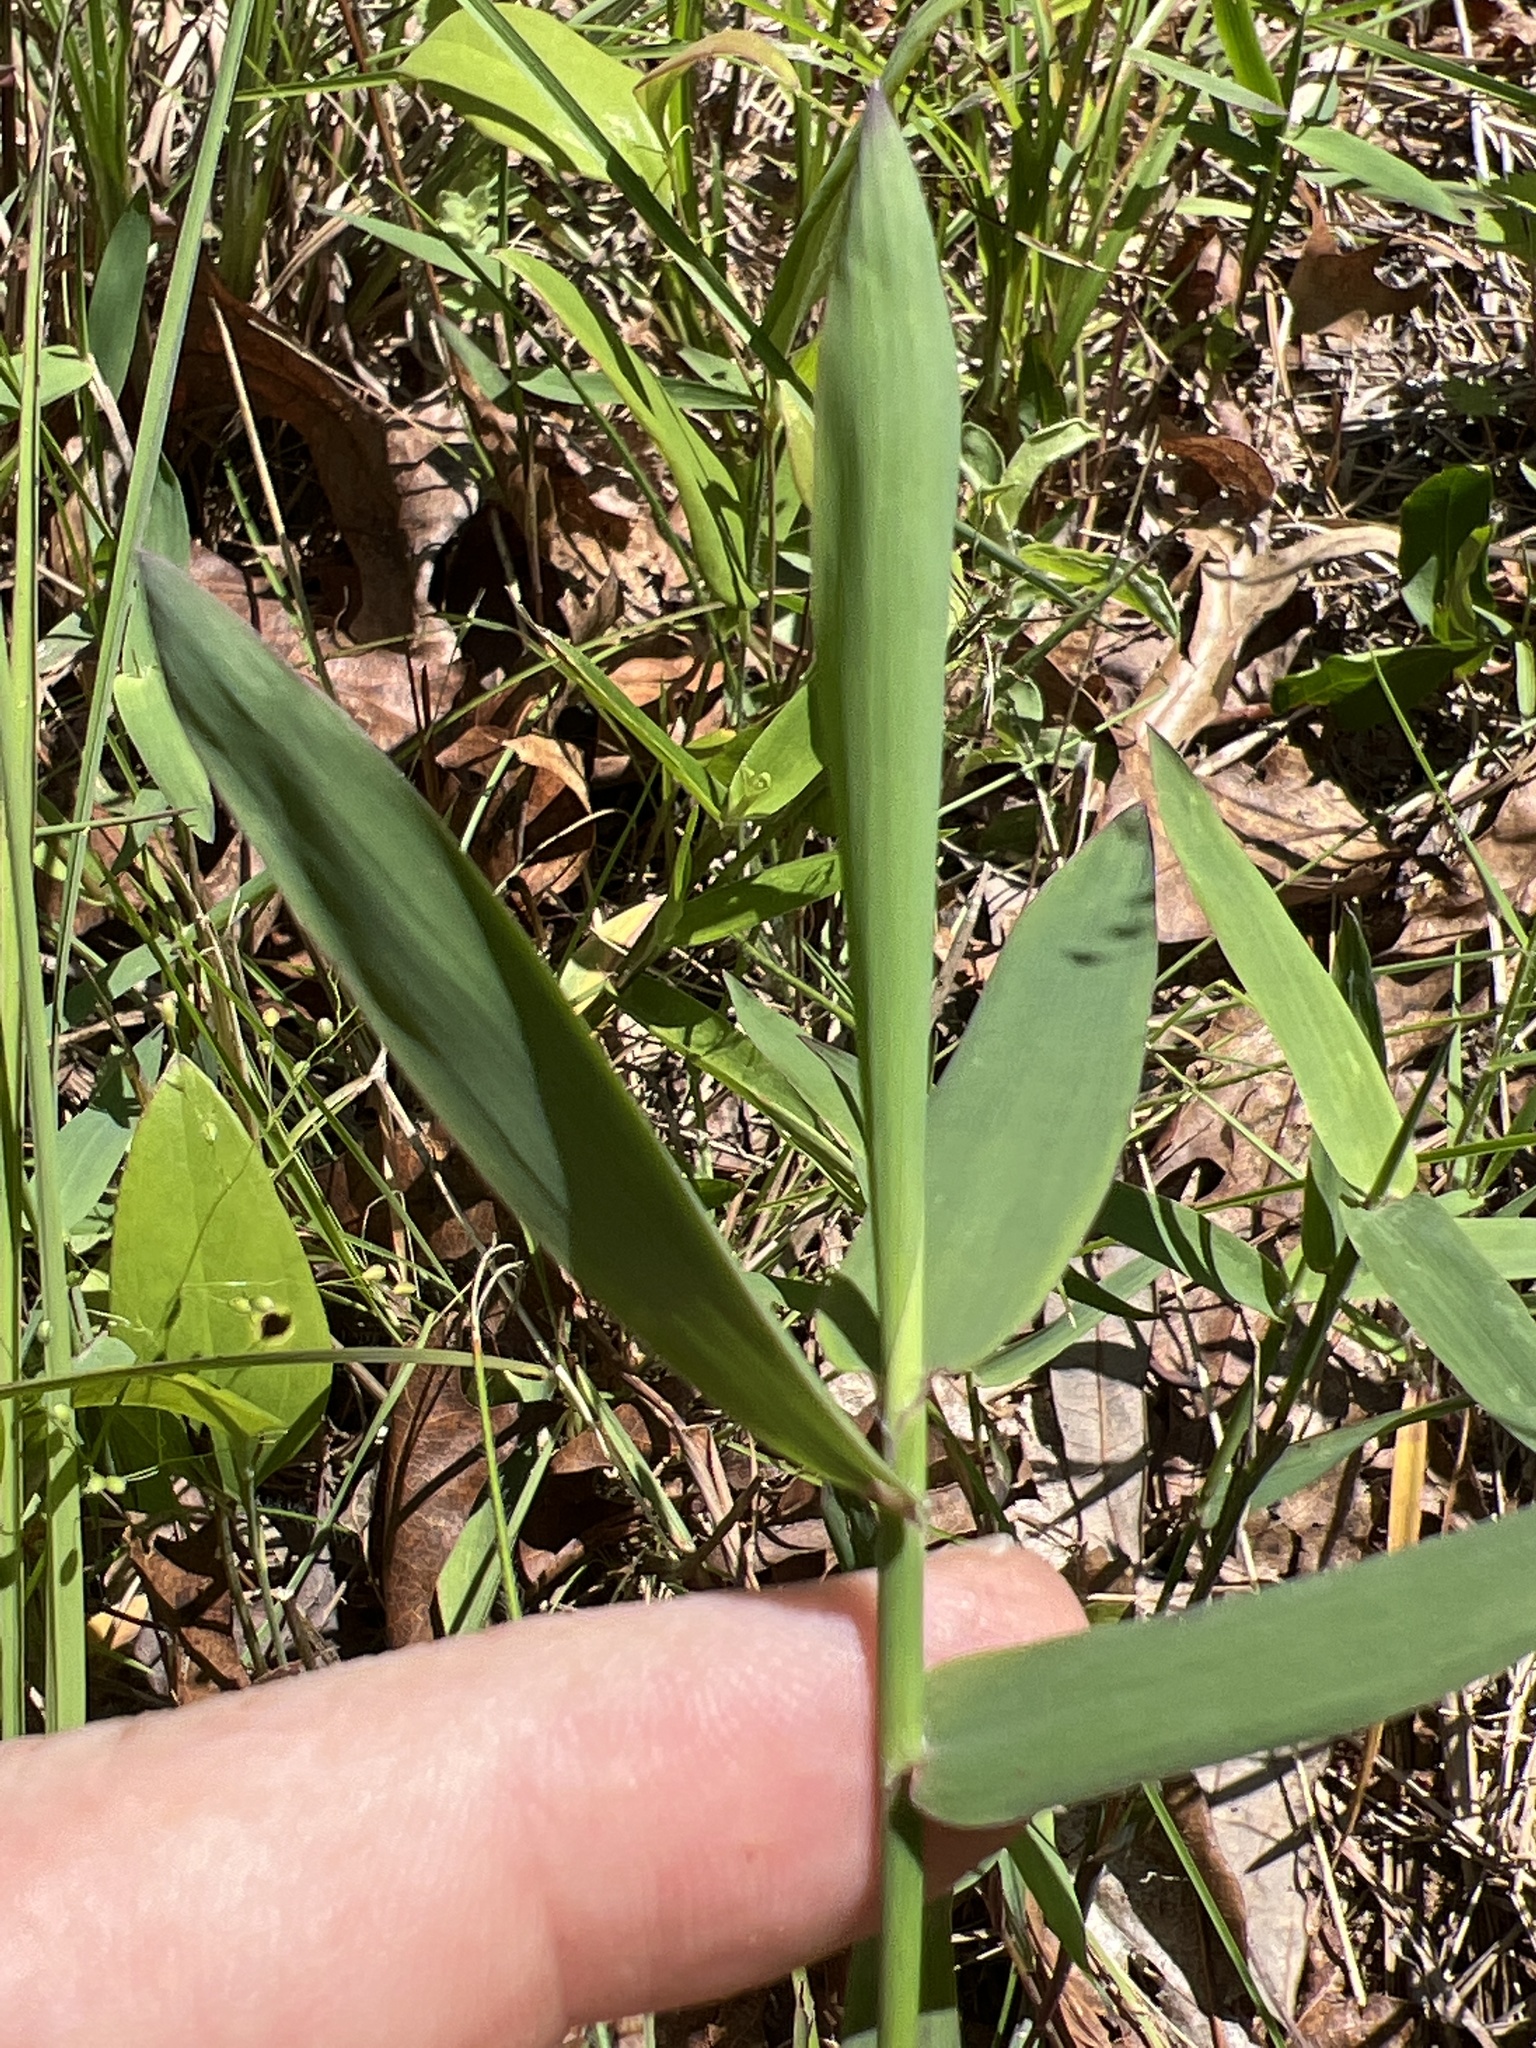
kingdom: Plantae
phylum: Tracheophyta
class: Liliopsida
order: Poales
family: Poaceae
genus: Gymnopogon
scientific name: Gymnopogon ambiguus
